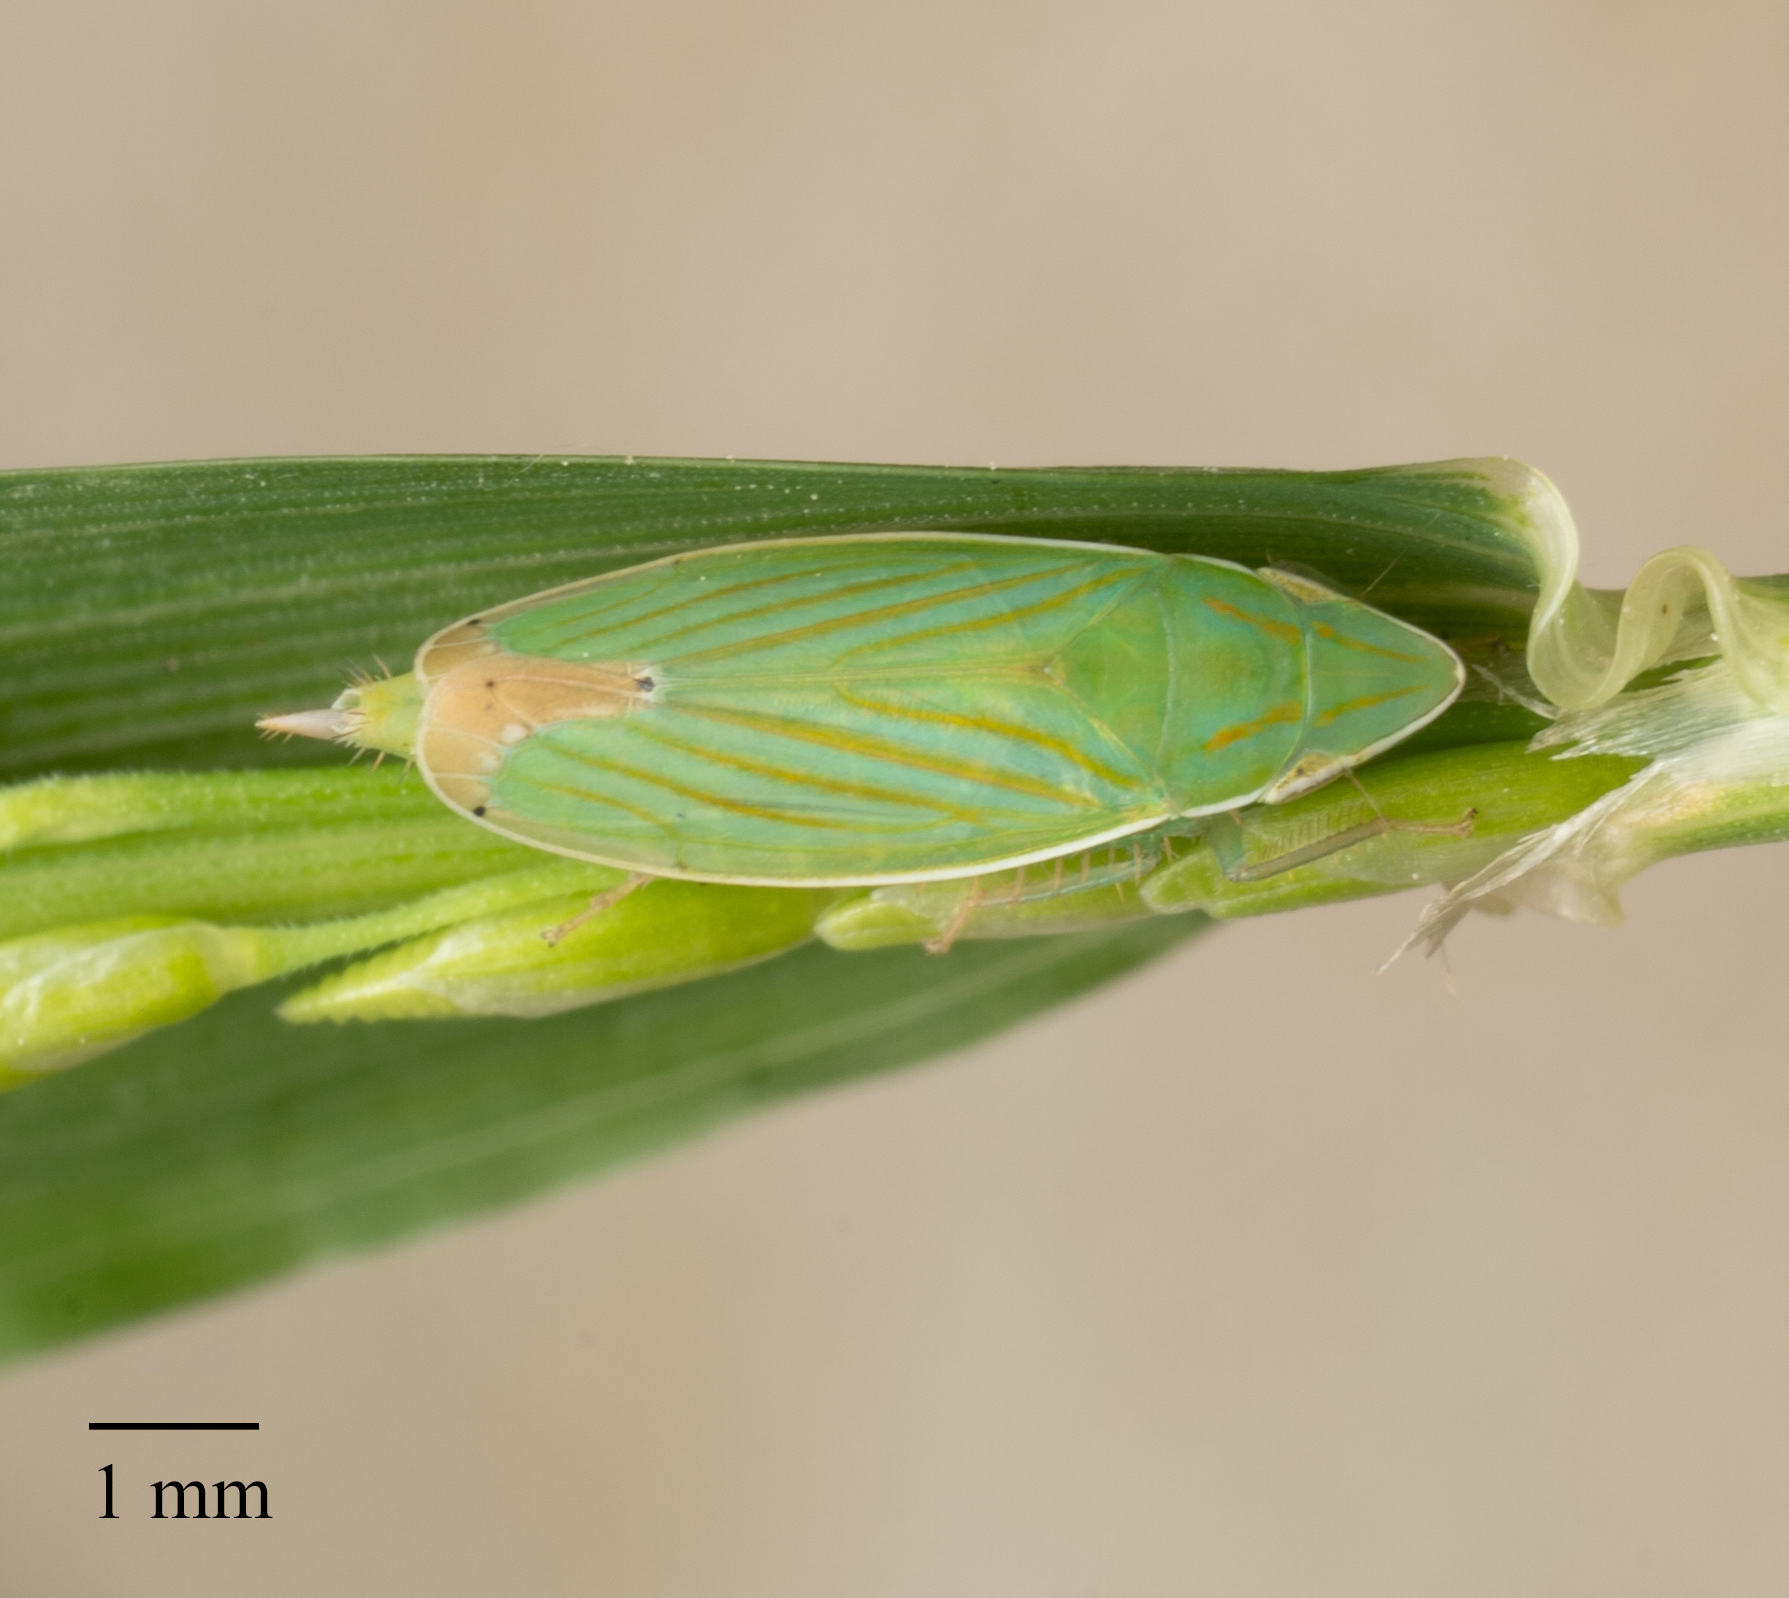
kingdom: Animalia
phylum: Arthropoda
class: Insecta
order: Hemiptera
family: Cicadellidae
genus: Spangbergiella
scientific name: Spangbergiella mexicana
